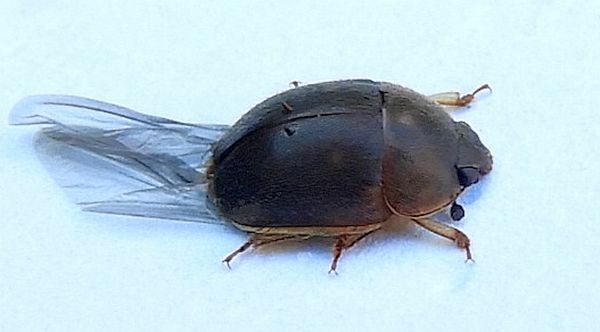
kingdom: Animalia
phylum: Arthropoda
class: Insecta
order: Coleoptera
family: Nitidulidae
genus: Amphicrossus
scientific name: Amphicrossus ciliatus
